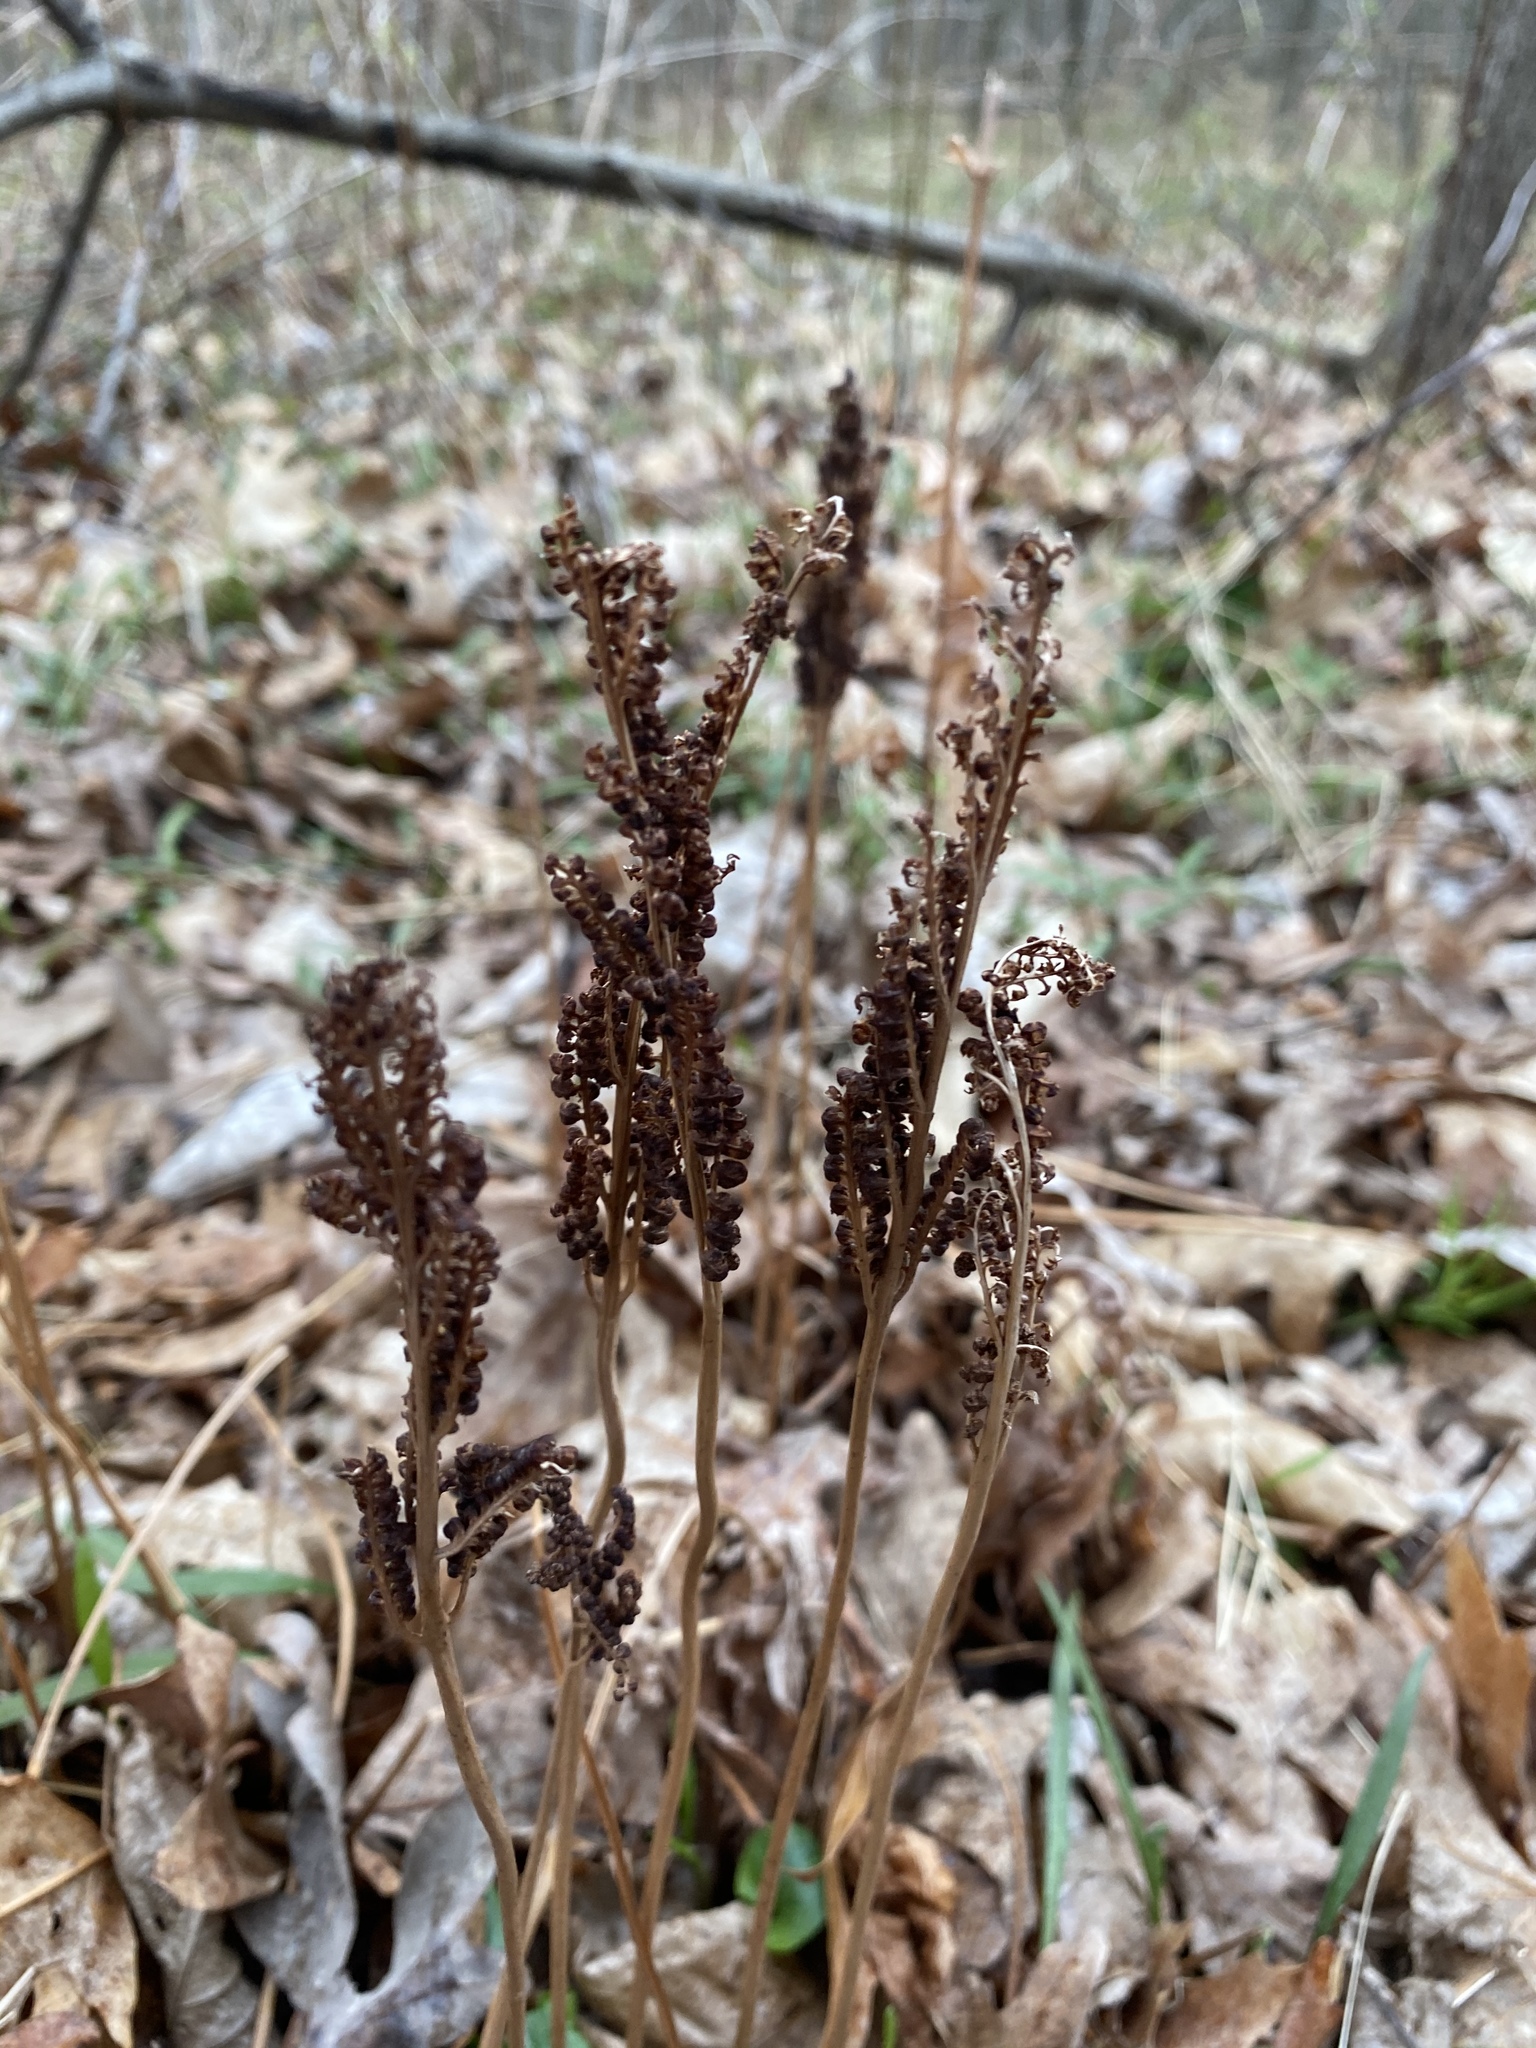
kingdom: Plantae
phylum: Tracheophyta
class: Polypodiopsida
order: Polypodiales
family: Onocleaceae
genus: Onoclea
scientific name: Onoclea sensibilis
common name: Sensitive fern
